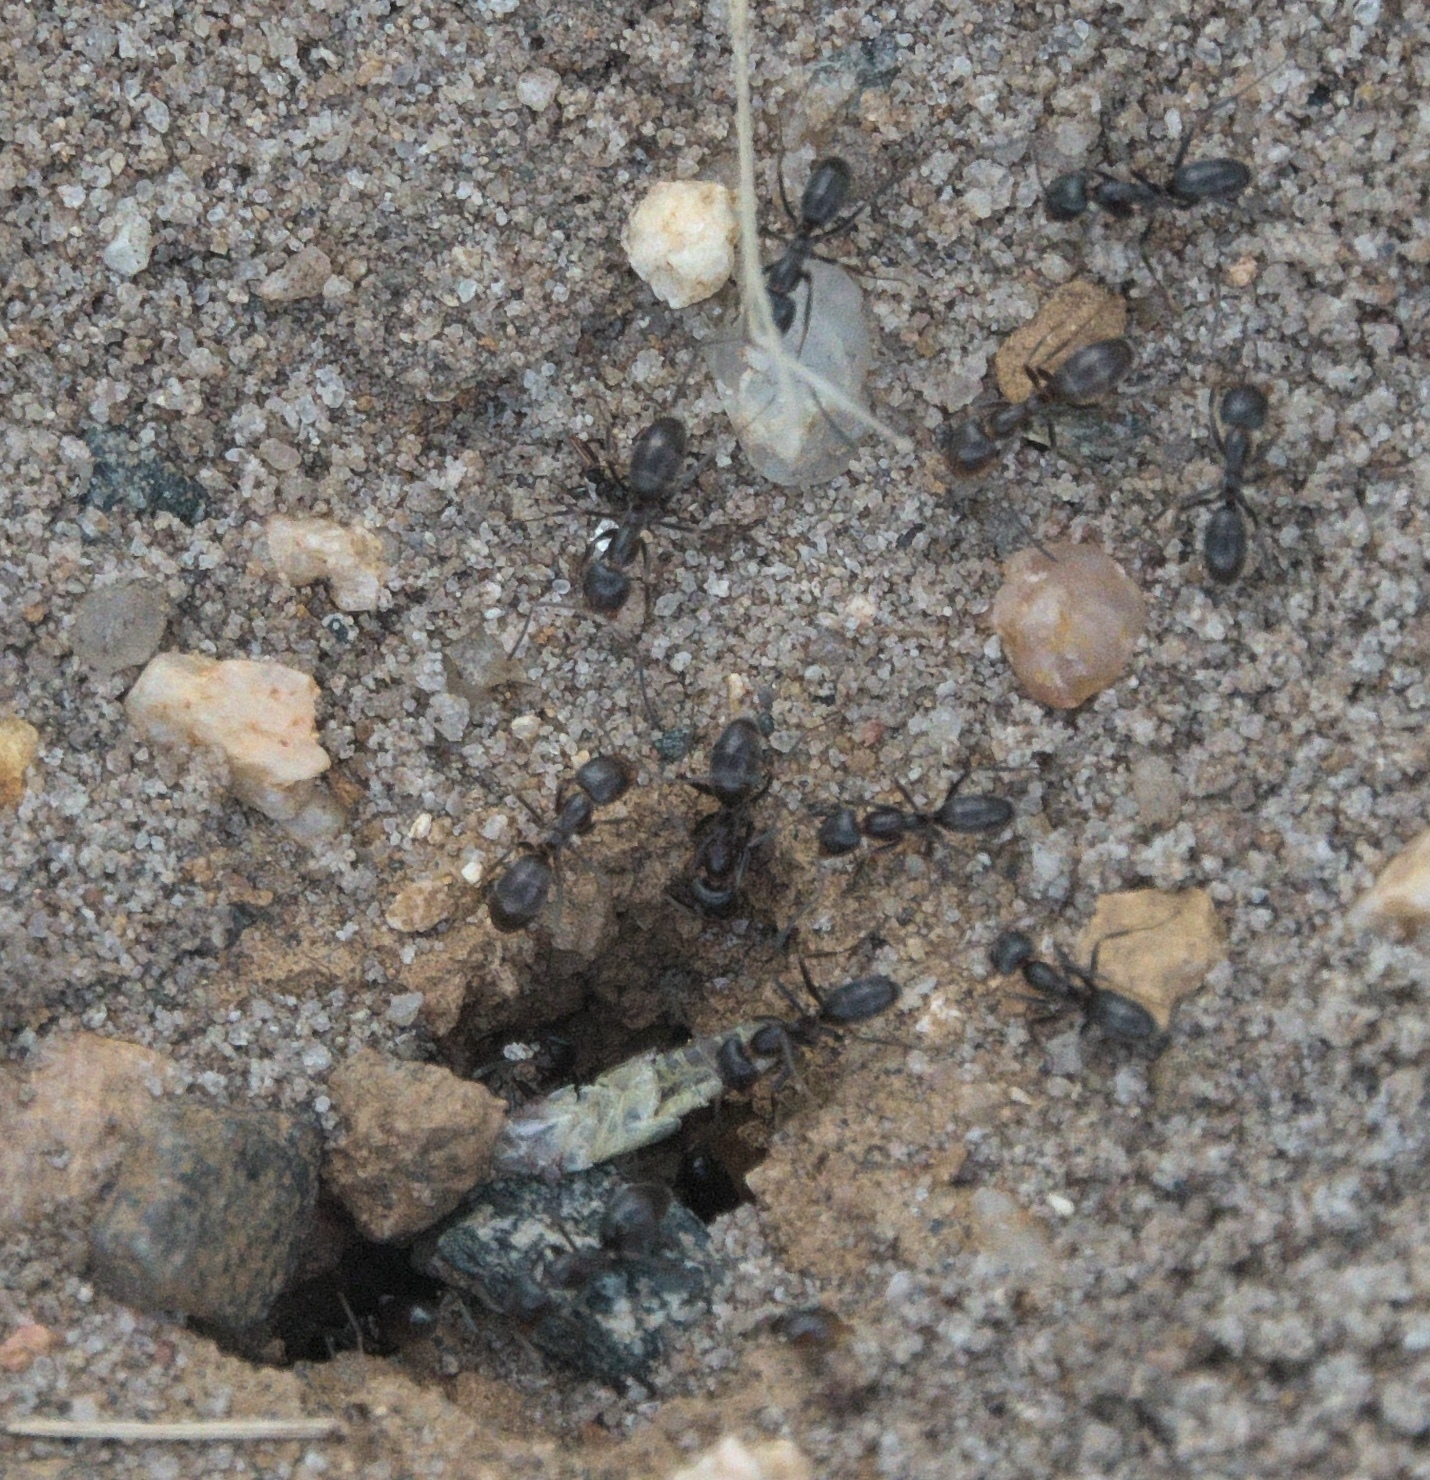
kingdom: Animalia
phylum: Arthropoda
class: Insecta
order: Hymenoptera
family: Formicidae
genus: Dorymyrmex
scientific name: Dorymyrmex insanus
